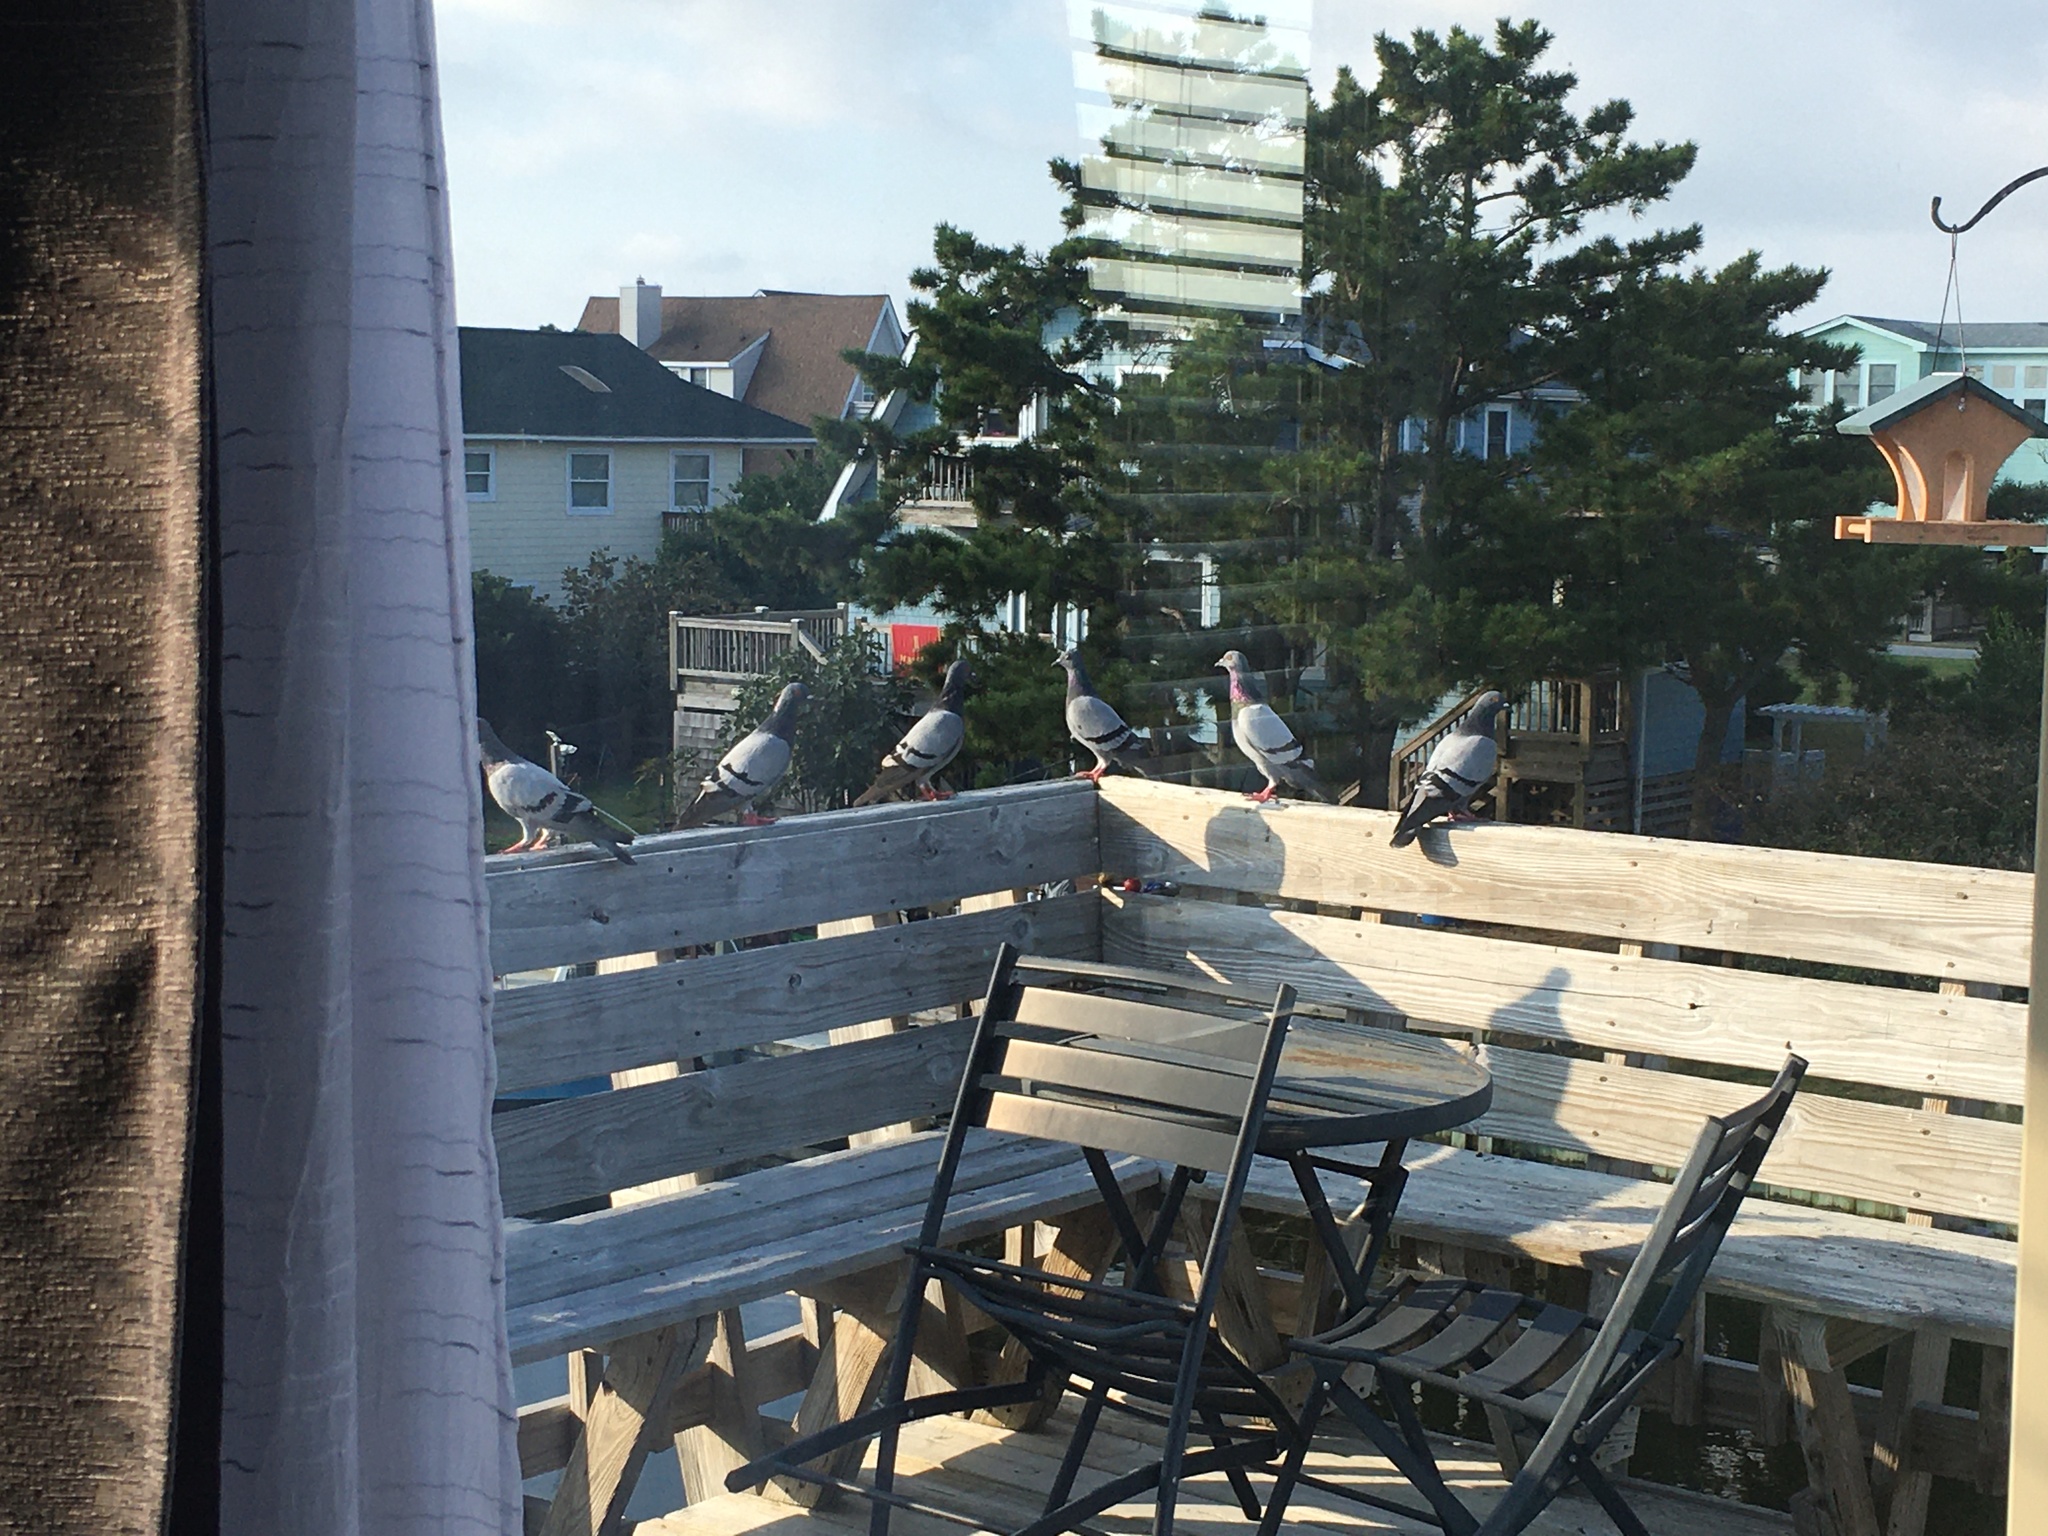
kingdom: Animalia
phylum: Chordata
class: Aves
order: Columbiformes
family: Columbidae
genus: Columba
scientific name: Columba livia
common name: Rock pigeon
